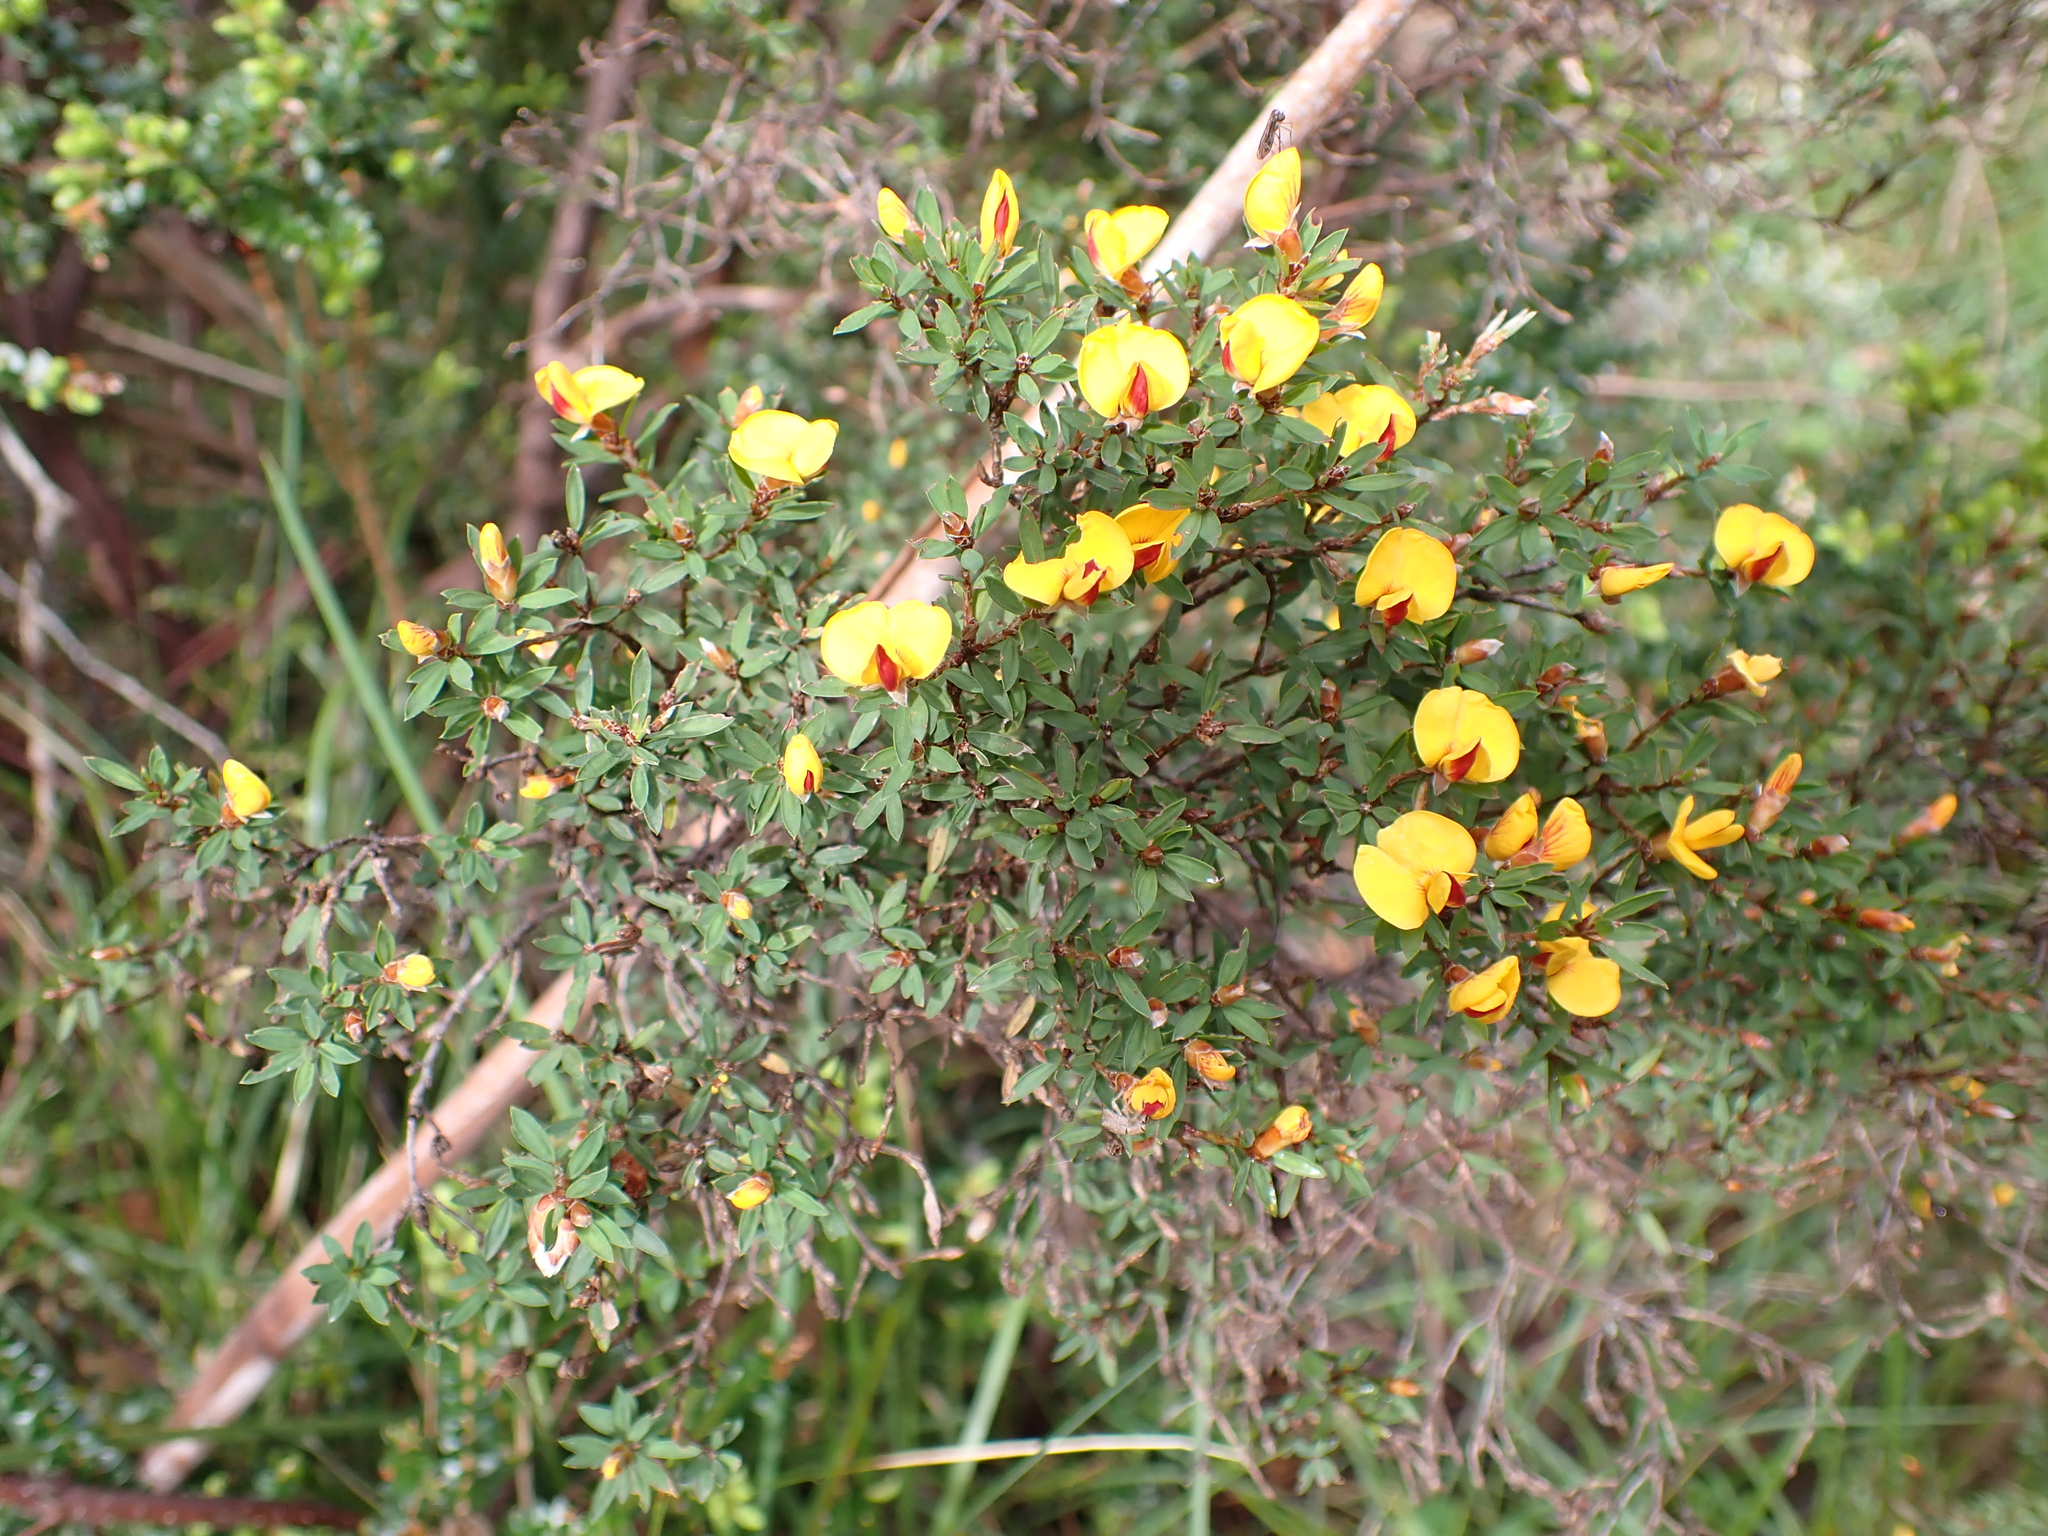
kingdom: Plantae
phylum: Tracheophyta
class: Magnoliopsida
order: Fabales
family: Fabaceae
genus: Pultenaea
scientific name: Pultenaea muelleri
